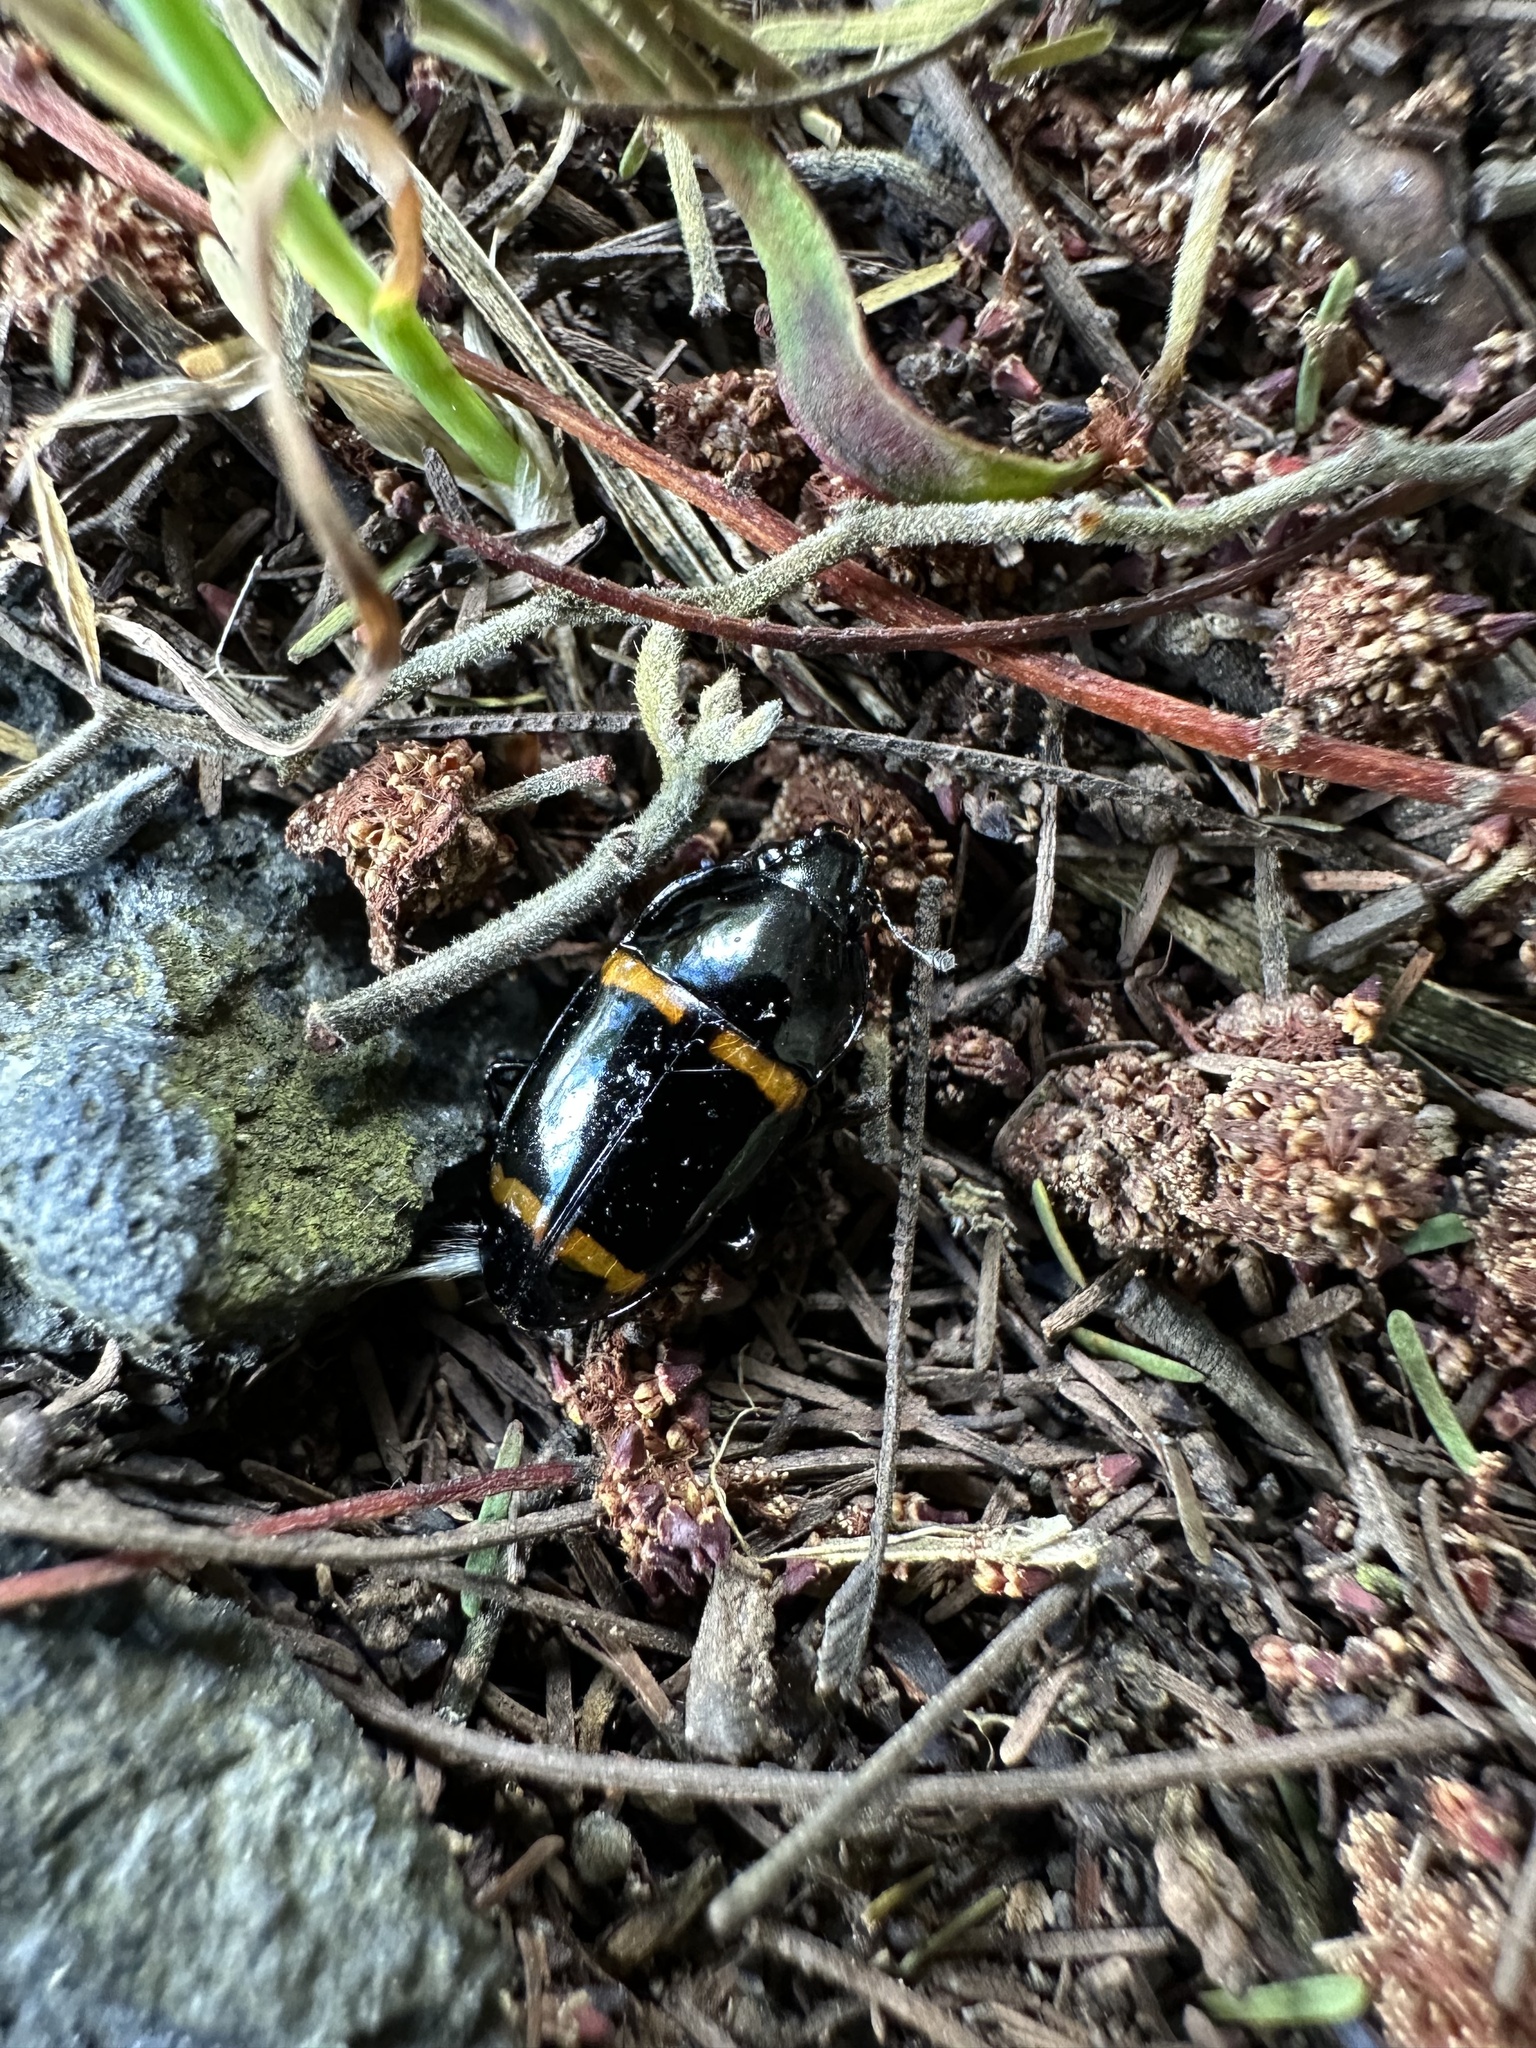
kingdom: Animalia
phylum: Arthropoda
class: Insecta
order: Coleoptera
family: Nitidulidae
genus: Lioschema
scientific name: Lioschema
